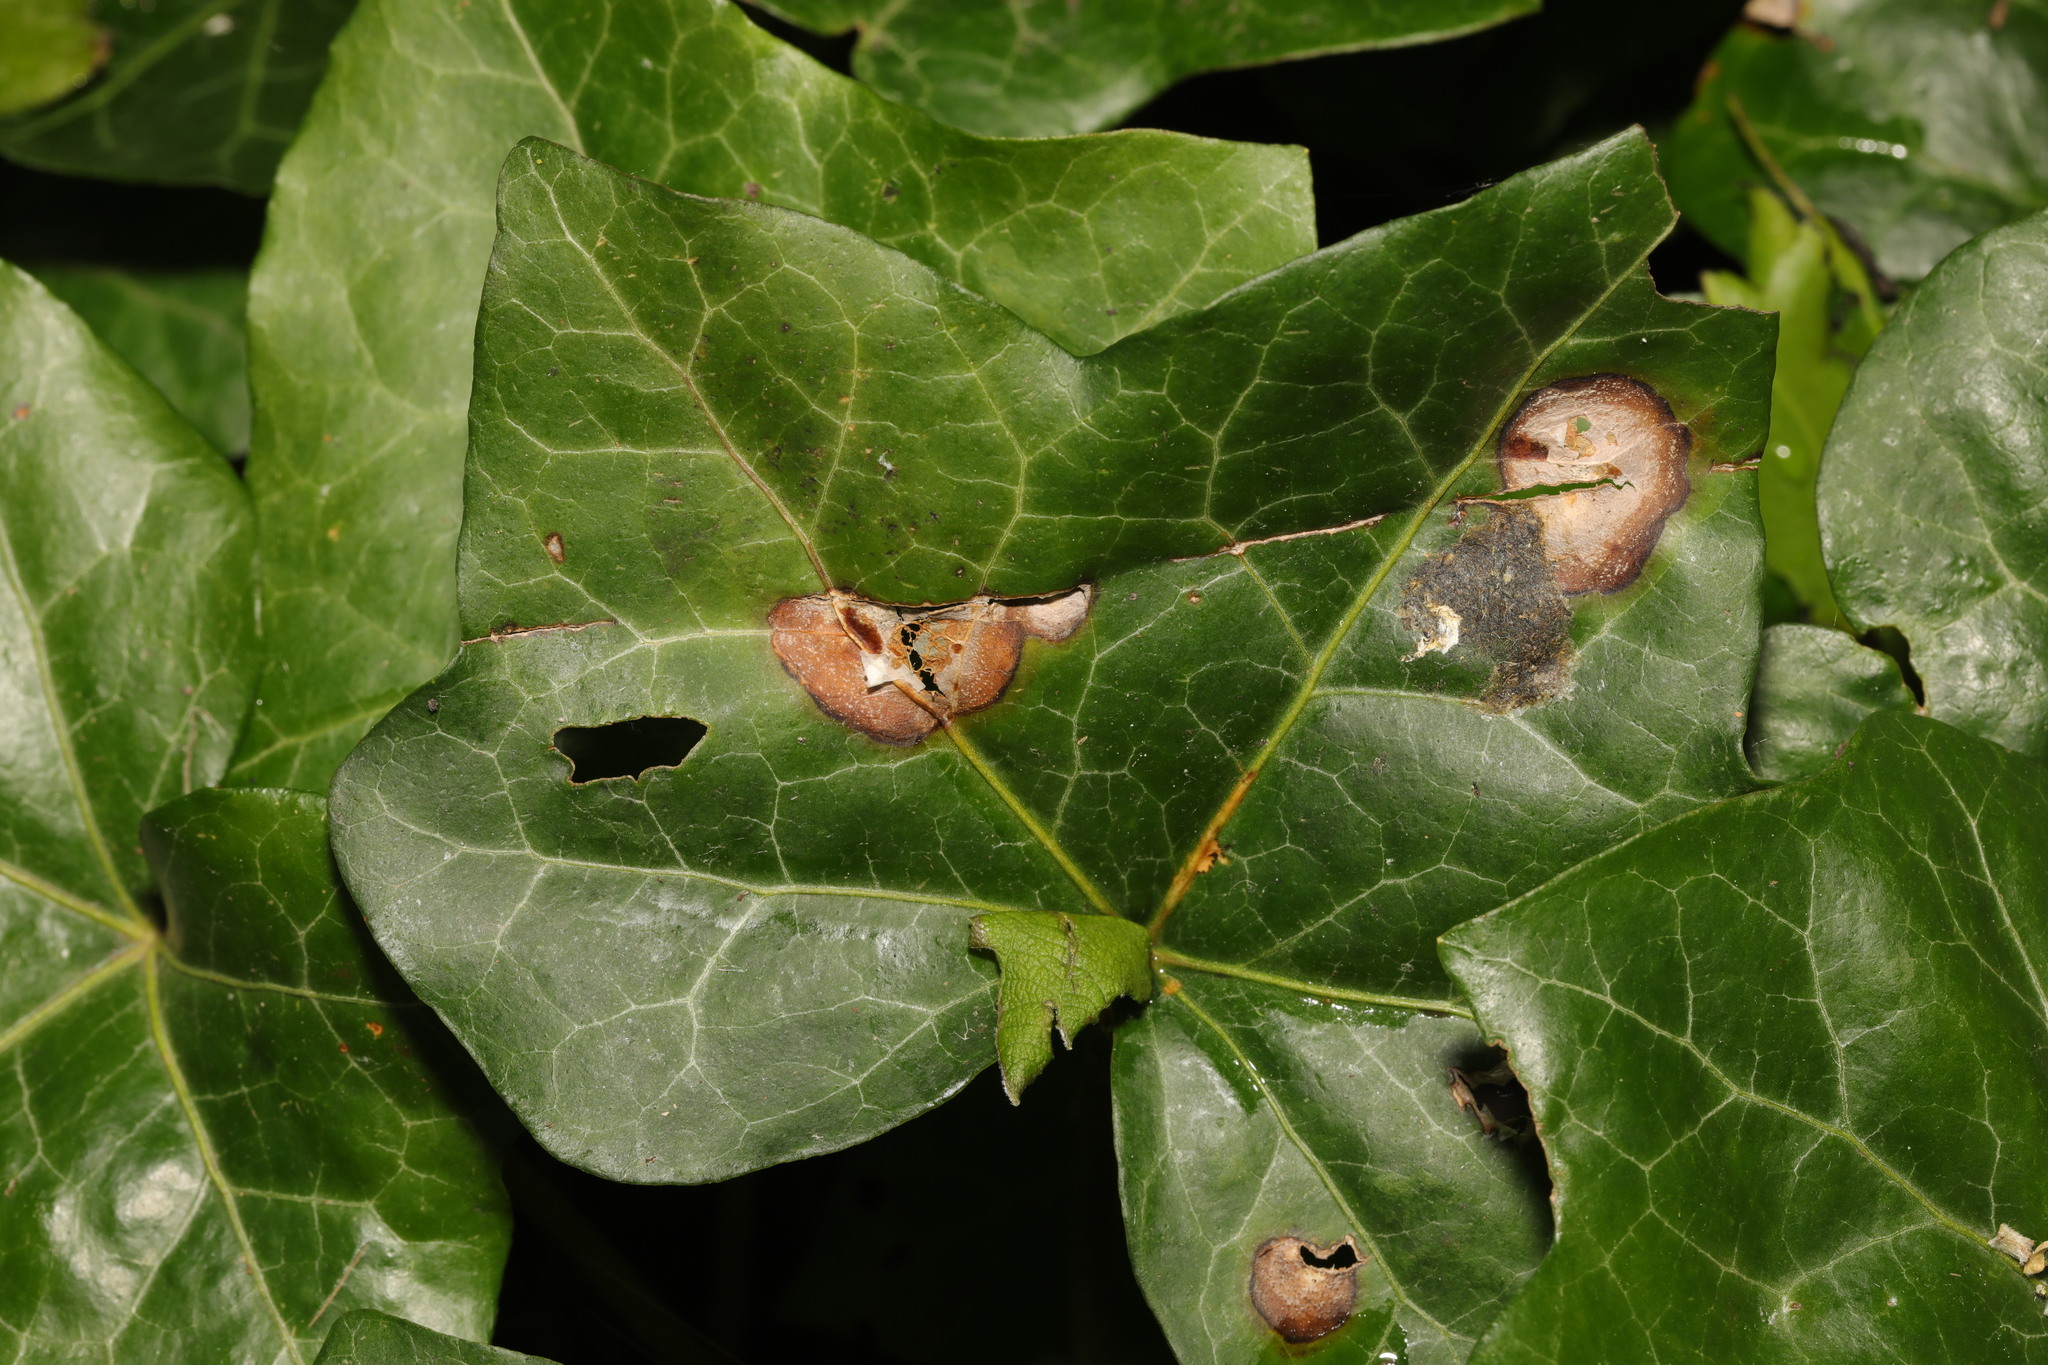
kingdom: Fungi
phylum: Ascomycota
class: Dothideomycetes
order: Pleosporales
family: Didymellaceae
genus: Boeremia
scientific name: Boeremia hedericola
